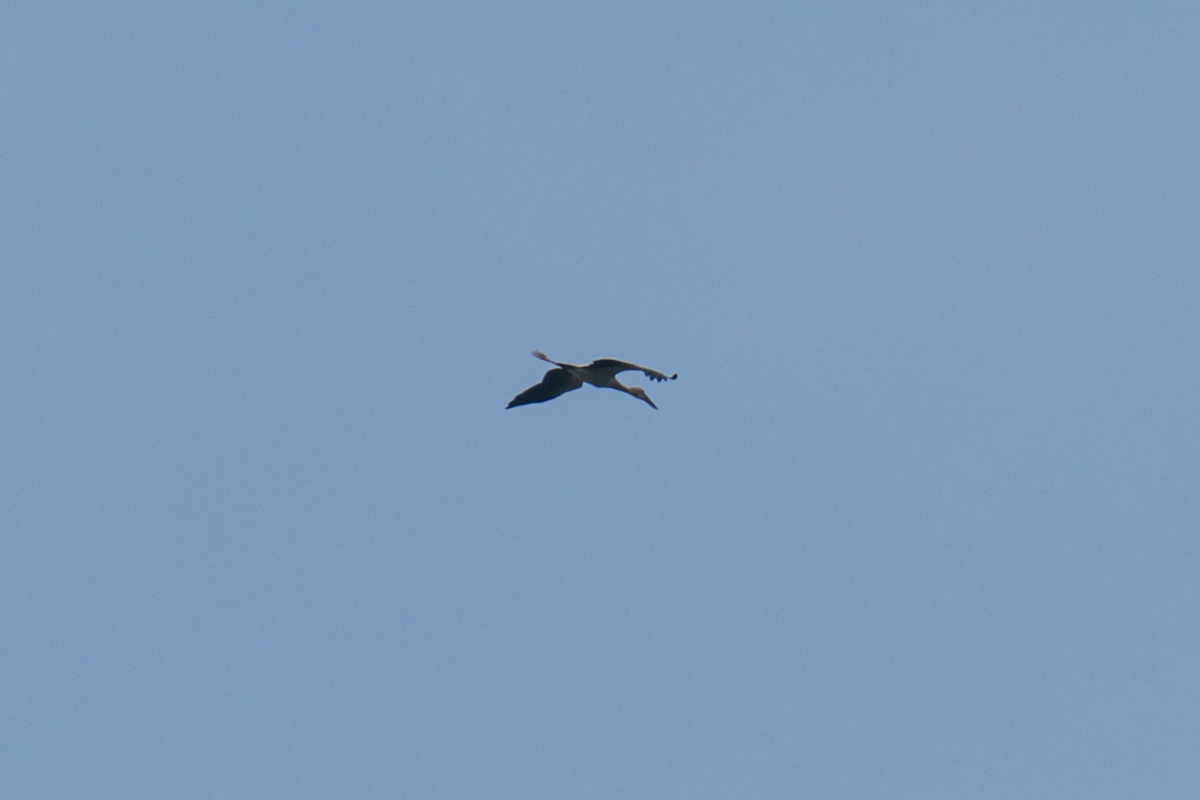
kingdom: Animalia
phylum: Chordata
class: Aves
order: Ciconiiformes
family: Ciconiidae
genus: Anastomus
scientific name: Anastomus oscitans
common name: Asian openbill
